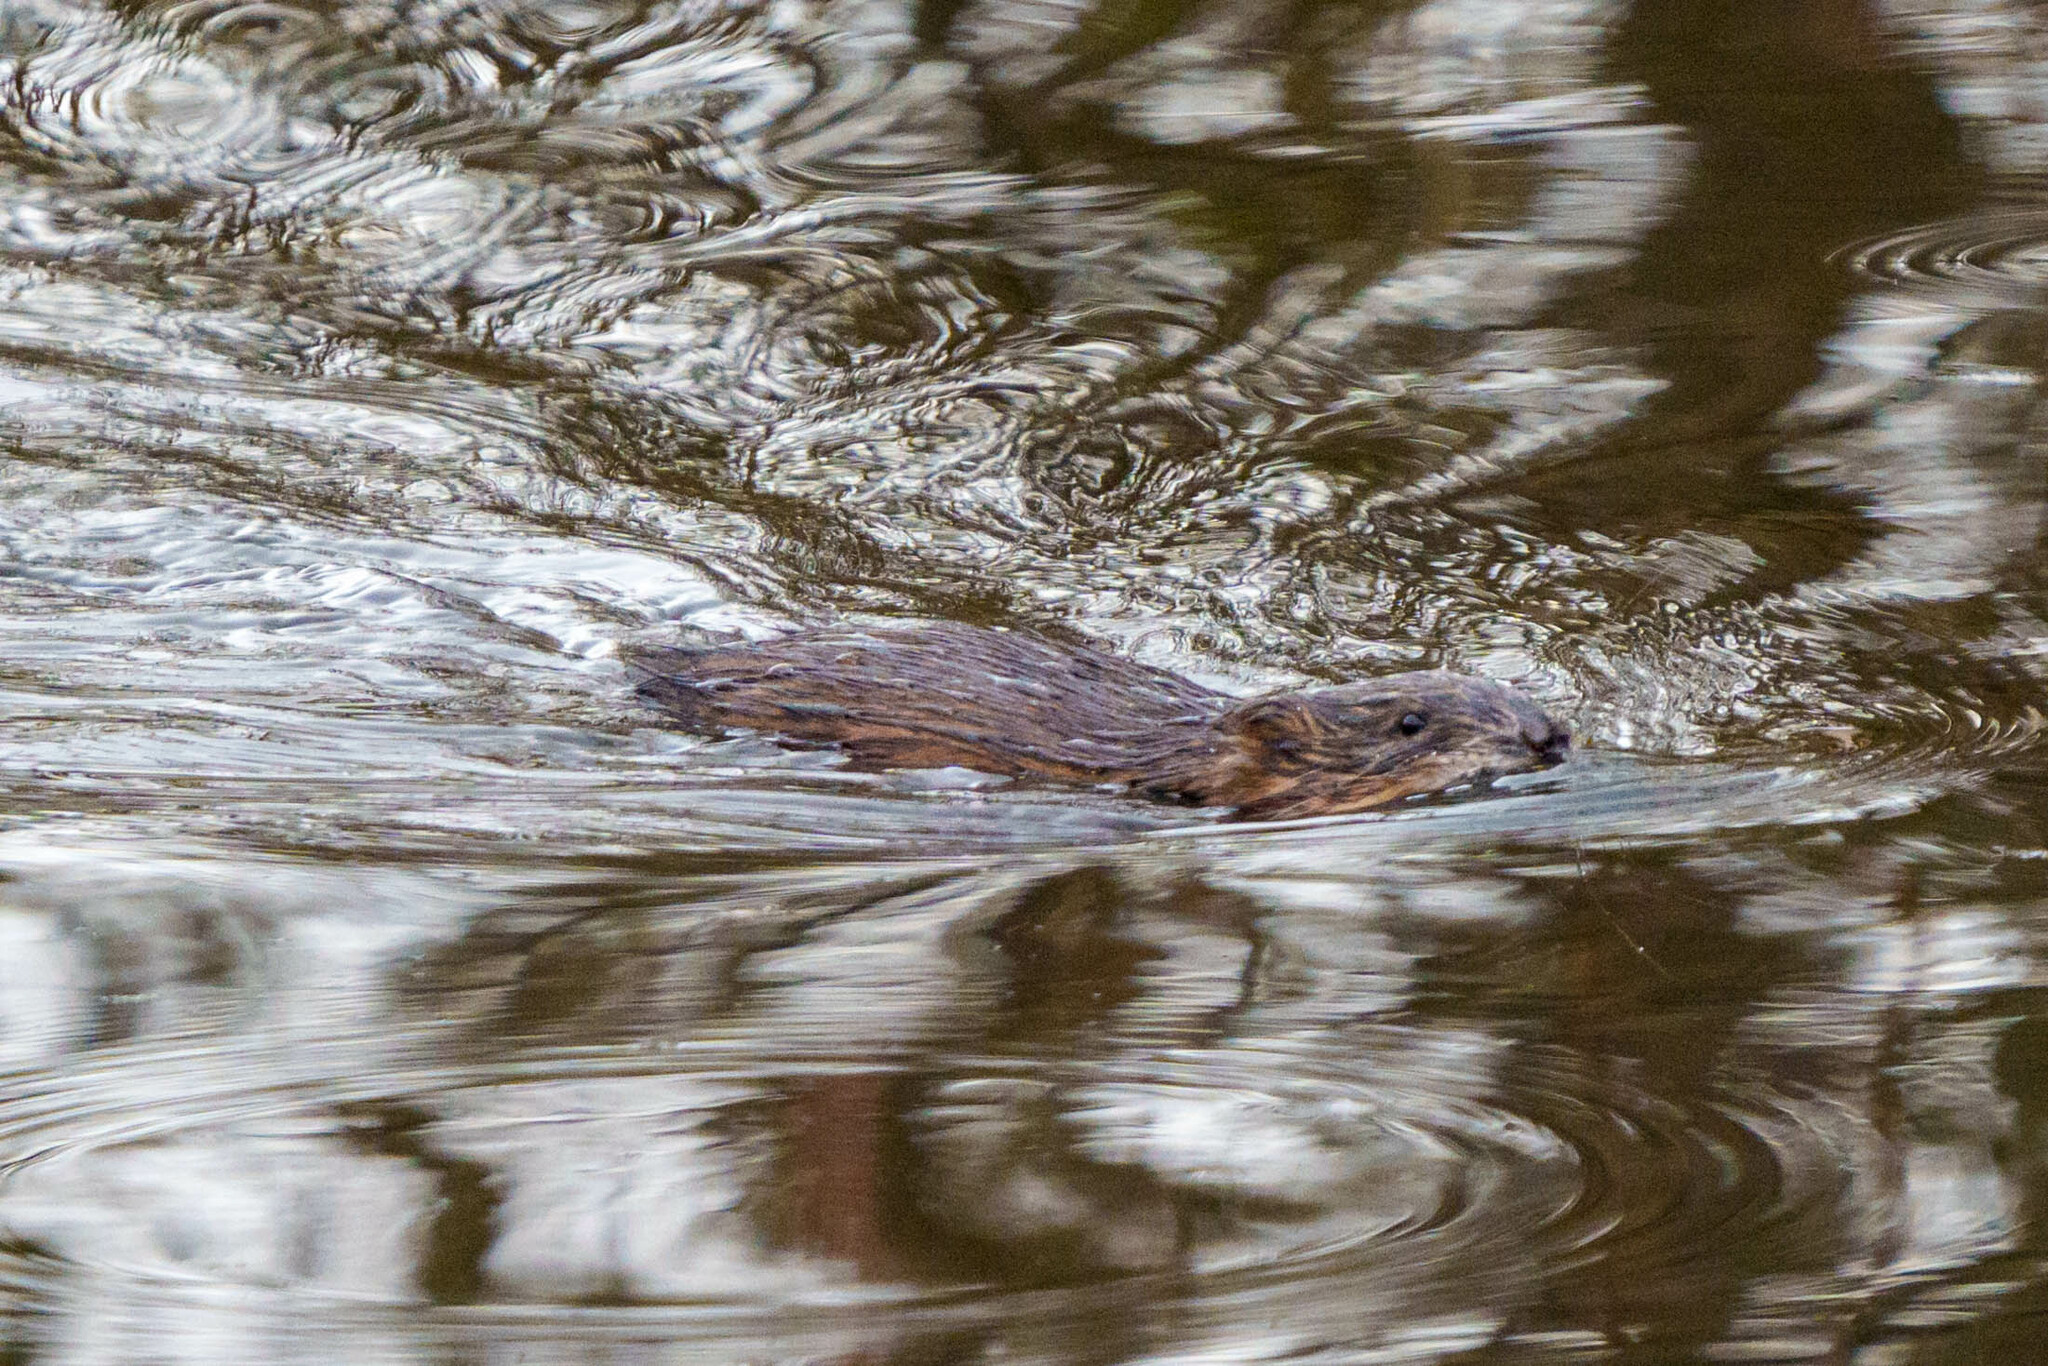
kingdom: Animalia
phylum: Chordata
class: Mammalia
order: Rodentia
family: Cricetidae
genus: Ondatra
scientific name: Ondatra zibethicus
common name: Muskrat
